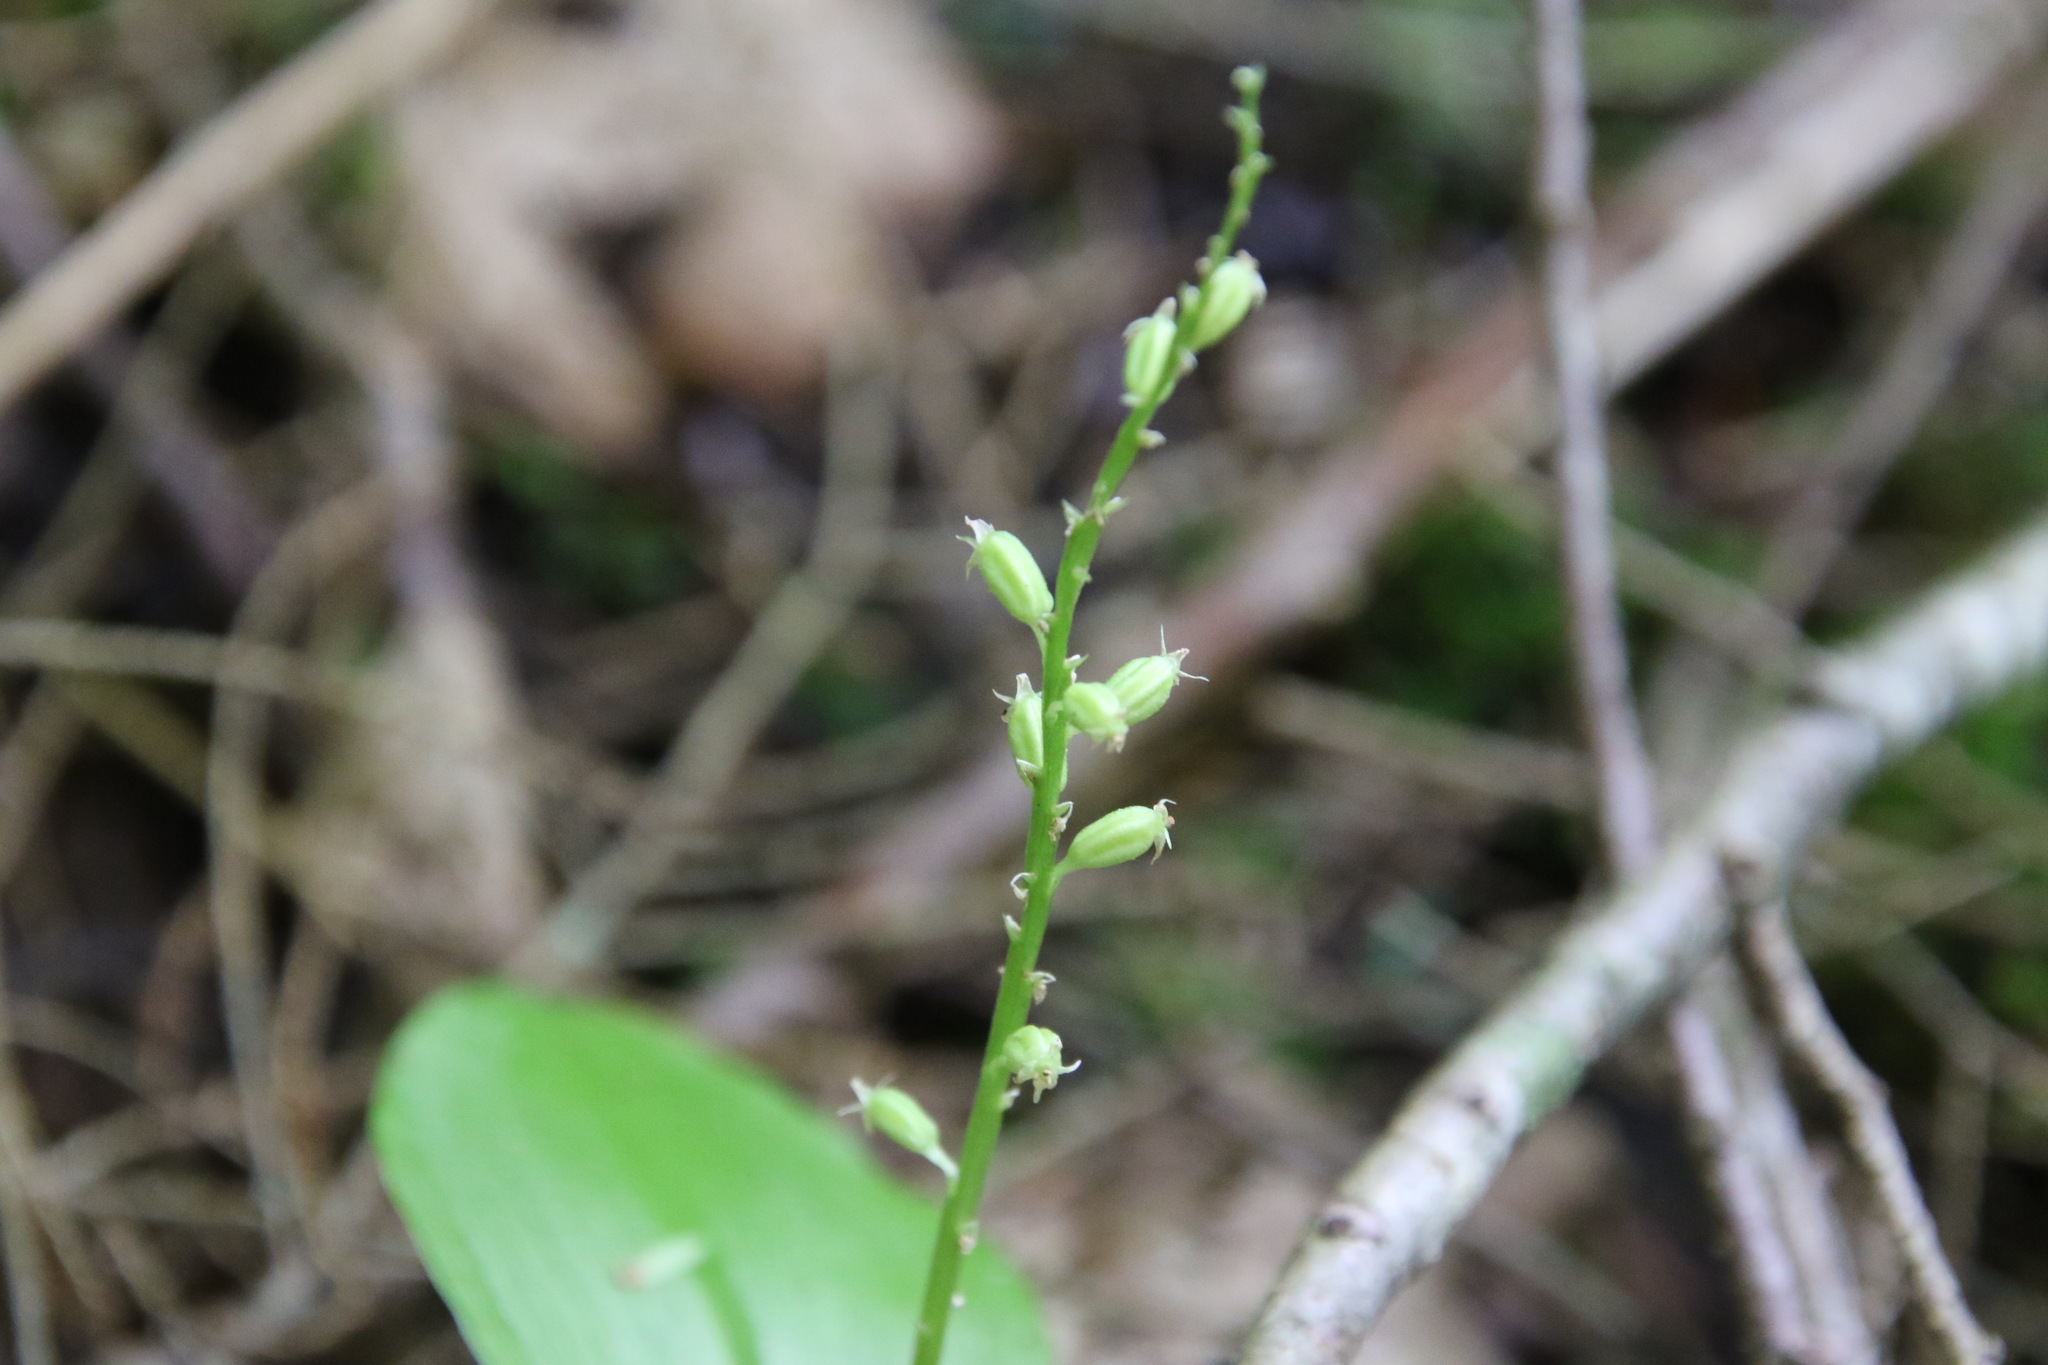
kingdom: Plantae
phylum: Tracheophyta
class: Liliopsida
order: Asparagales
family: Orchidaceae
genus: Malaxis
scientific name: Malaxis monophyllos
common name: White adder's-mouth
